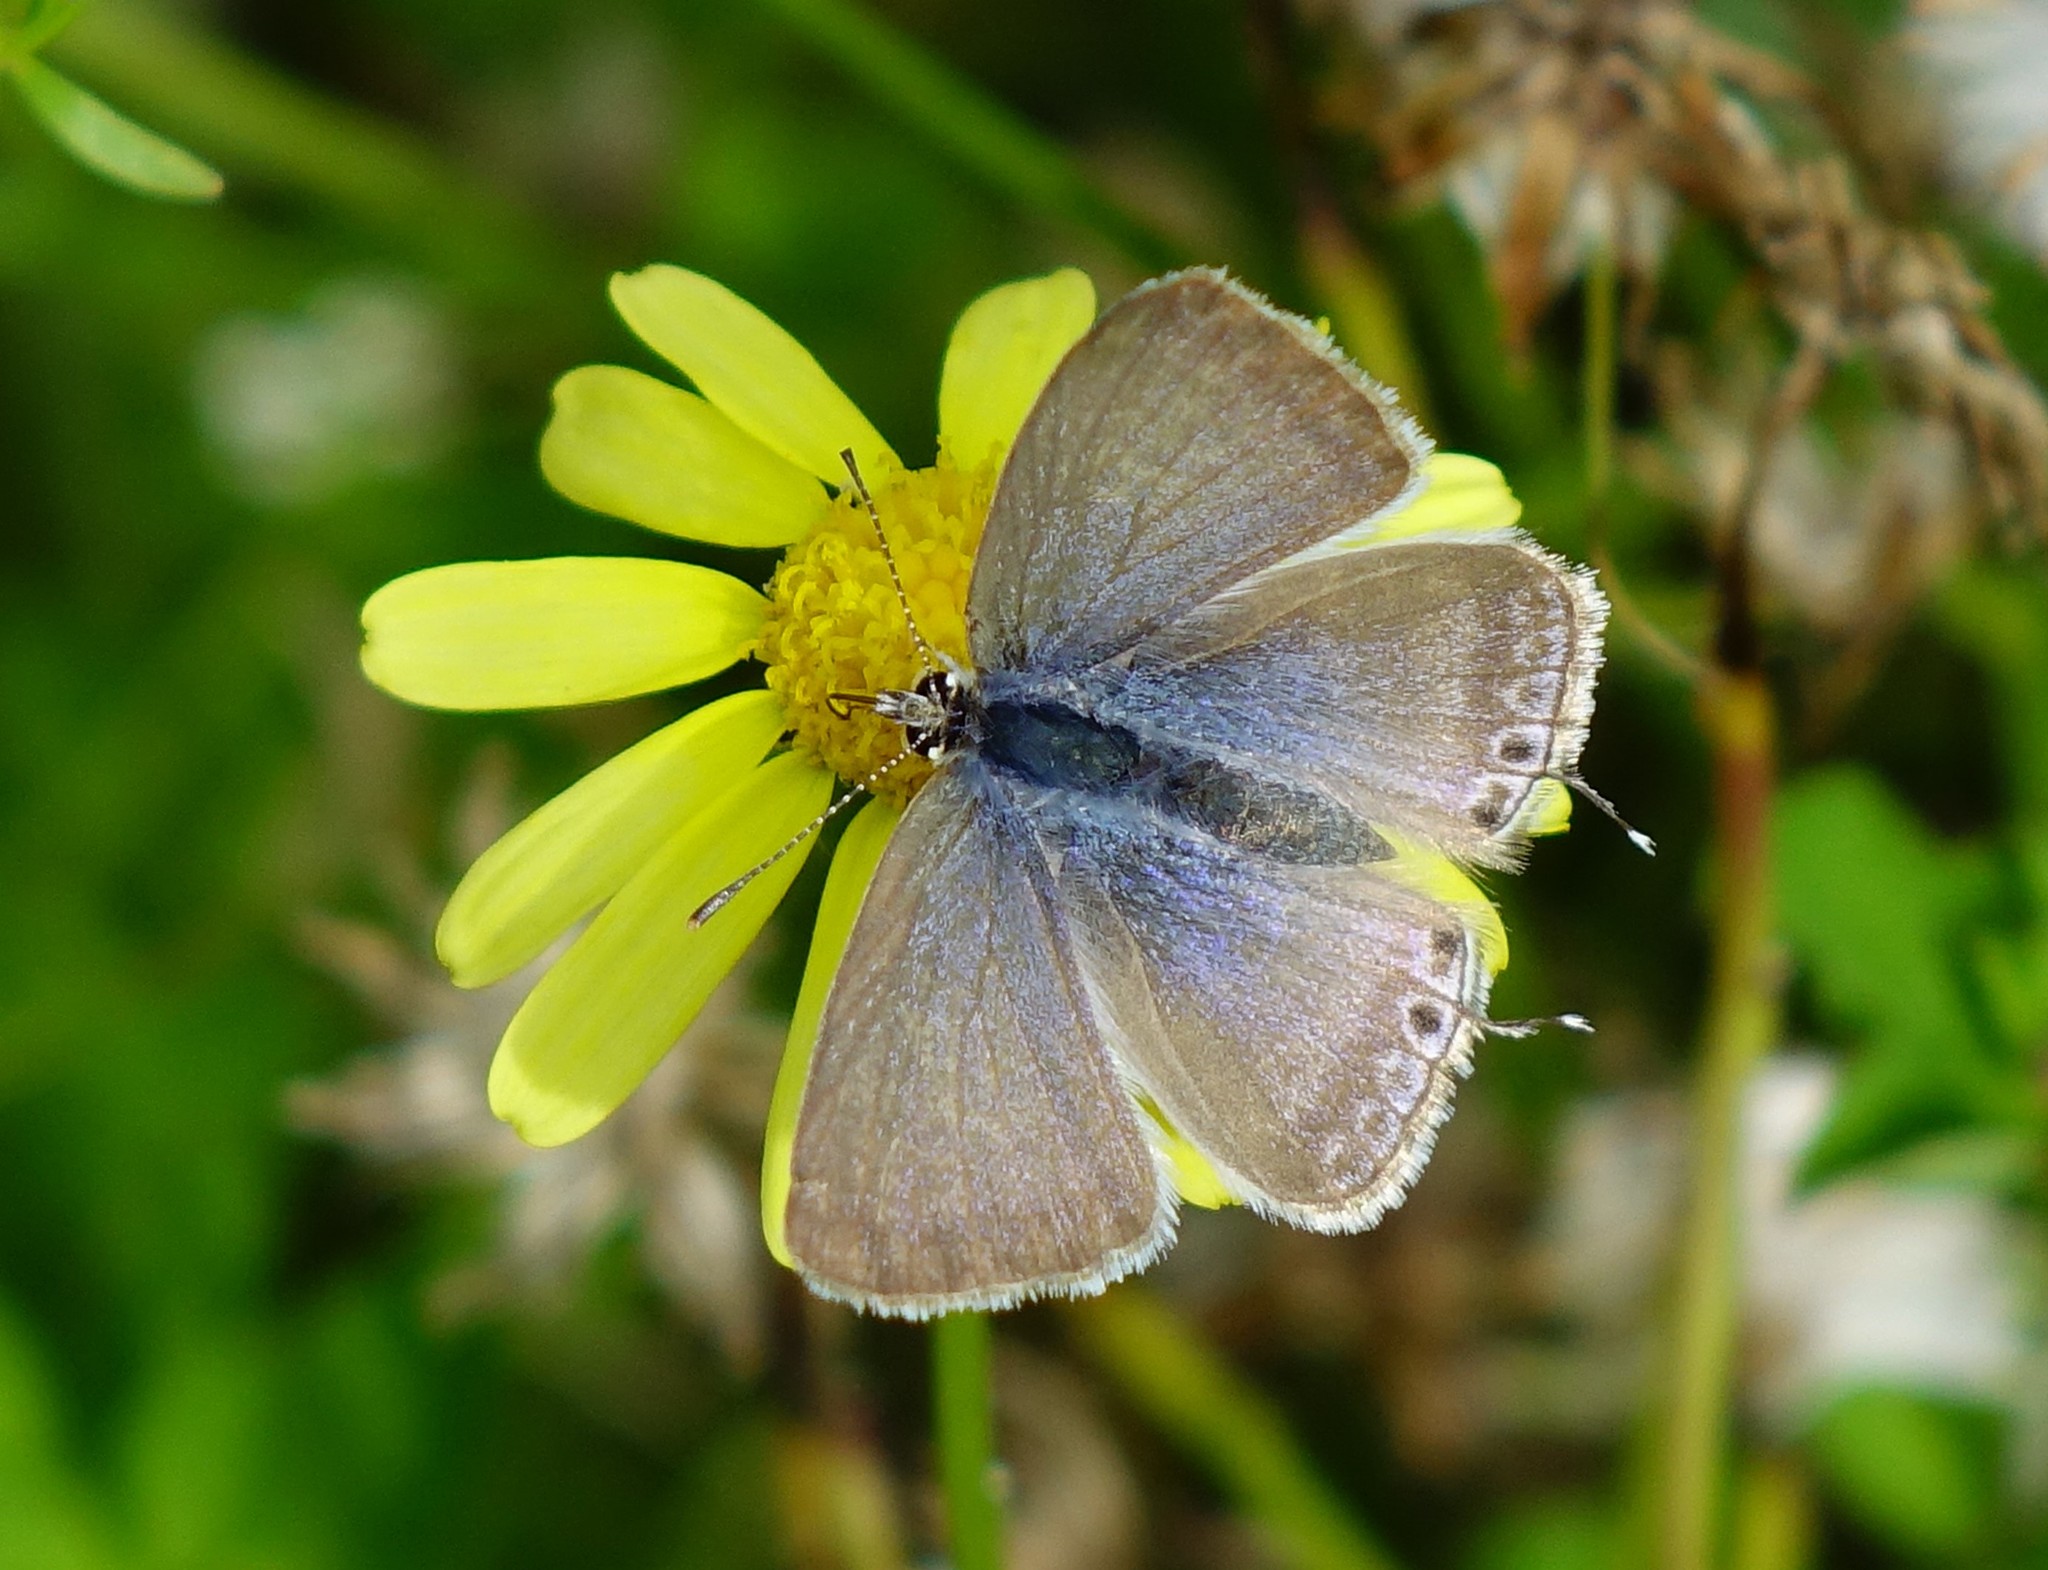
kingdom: Animalia
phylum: Arthropoda
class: Insecta
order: Lepidoptera
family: Lycaenidae
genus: Lampides
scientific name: Lampides boeticus
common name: Long-tailed blue
